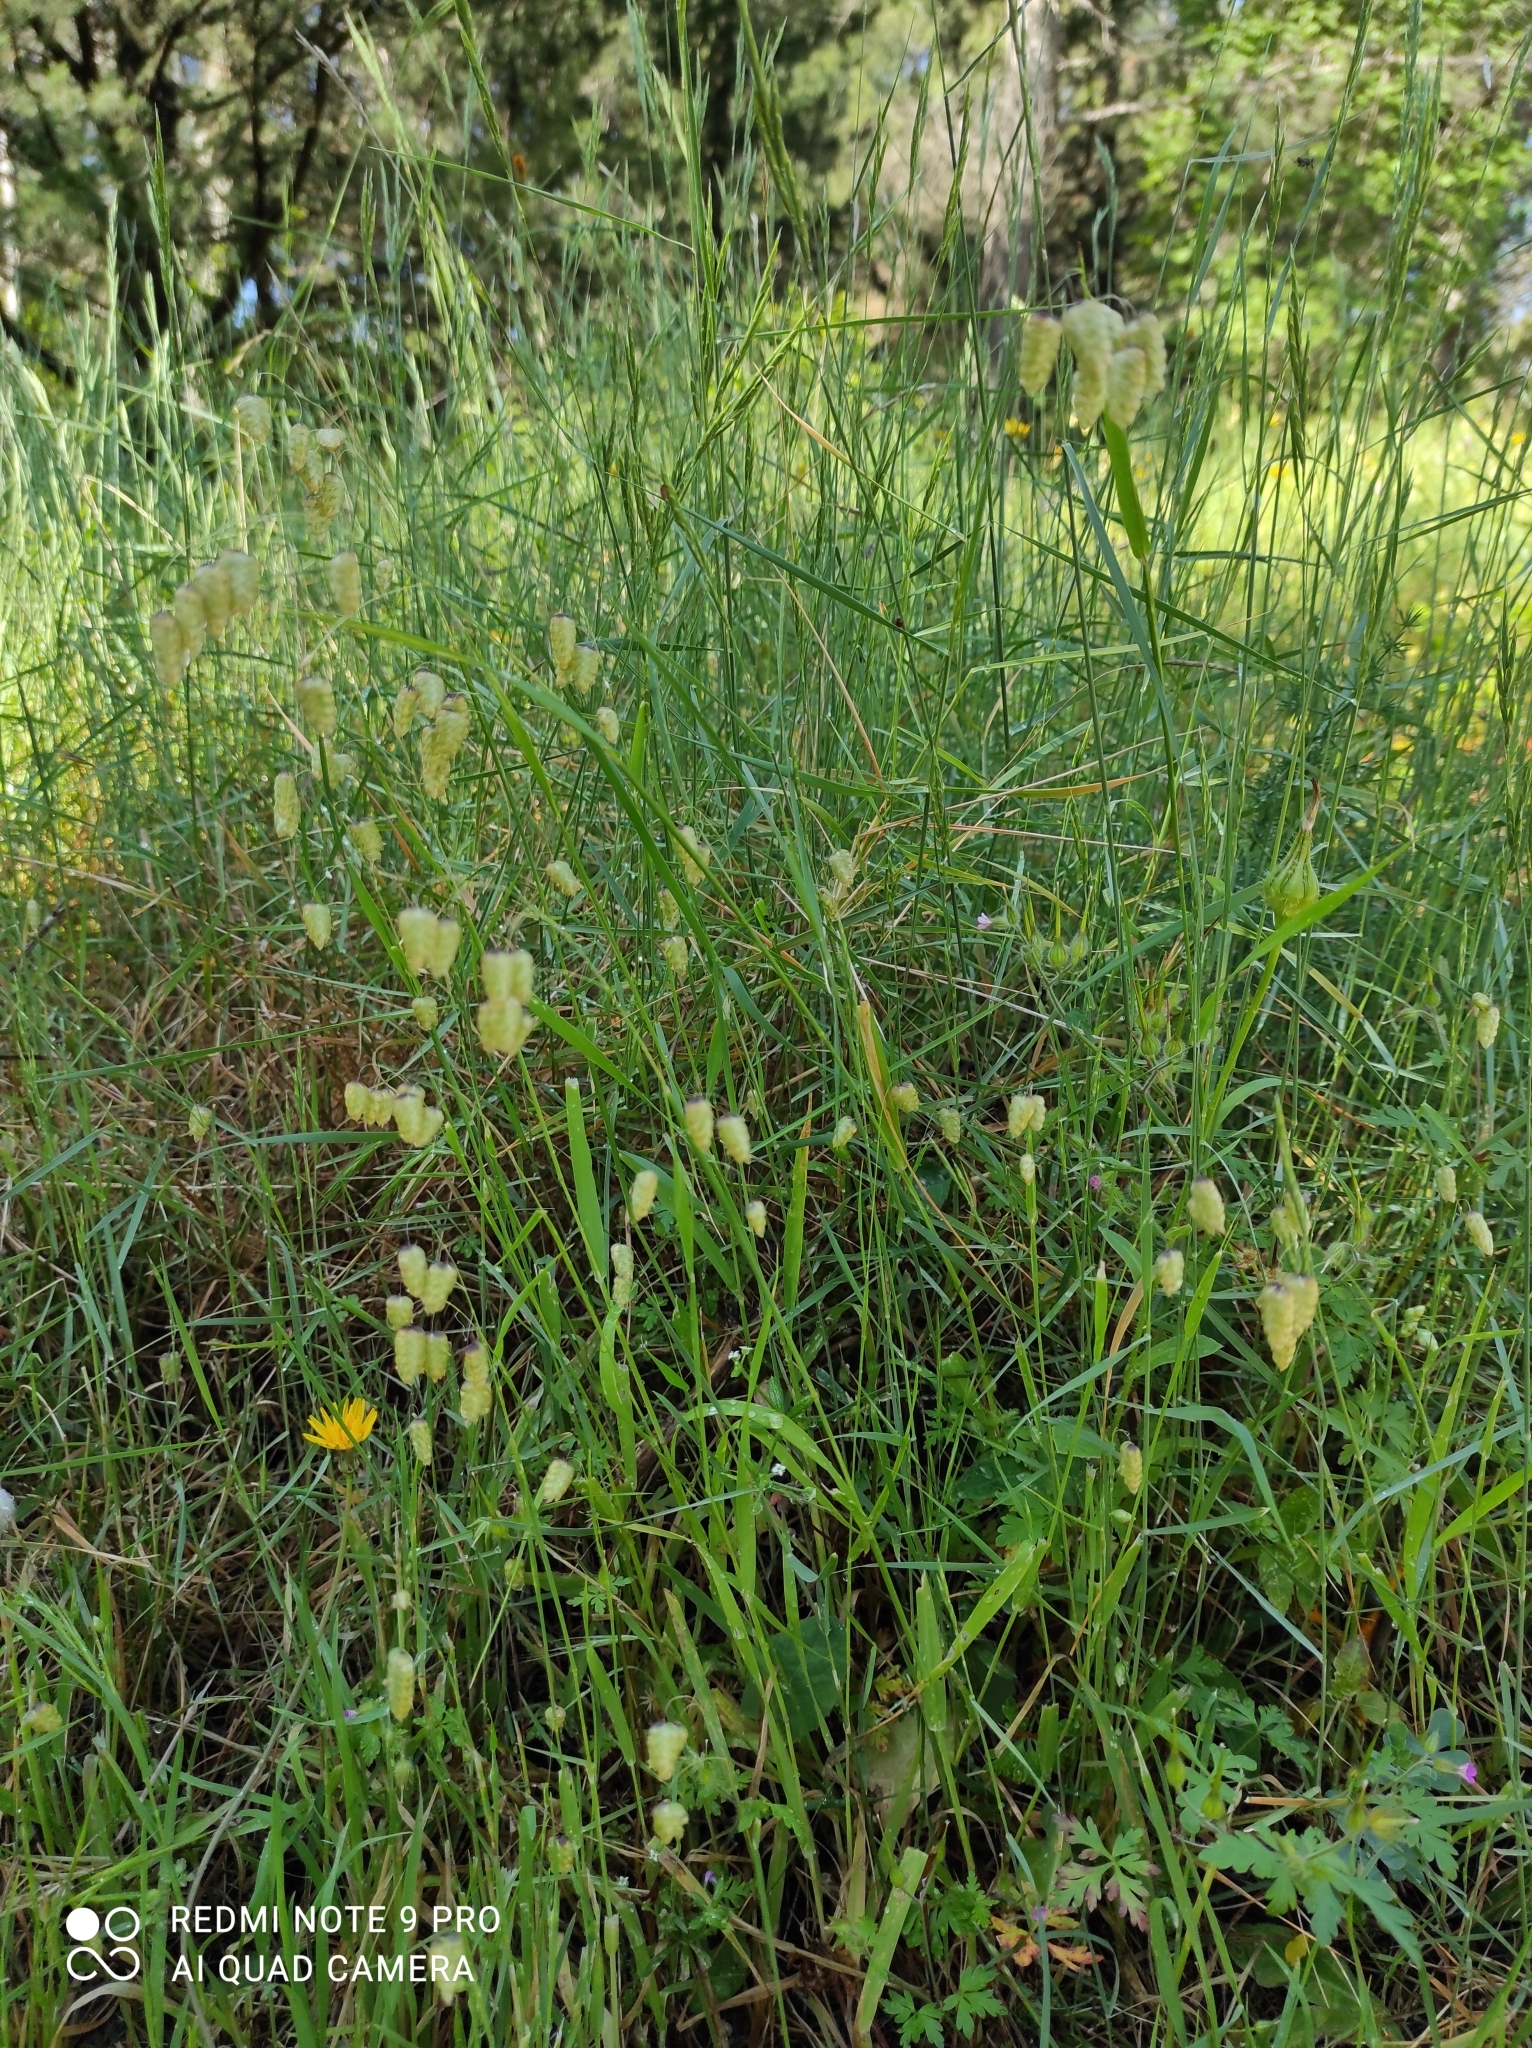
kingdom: Plantae
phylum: Tracheophyta
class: Liliopsida
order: Poales
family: Poaceae
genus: Briza
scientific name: Briza maxima
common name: Big quakinggrass
